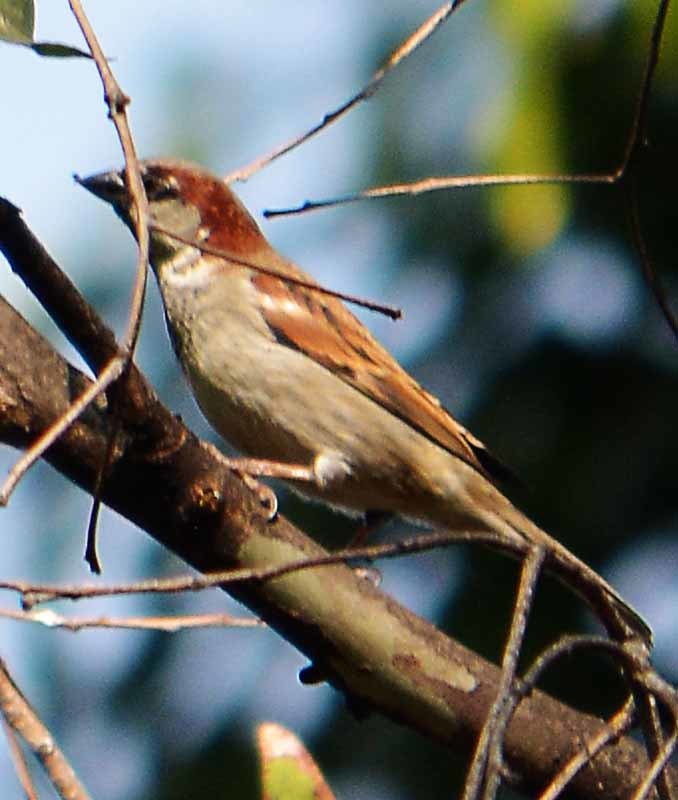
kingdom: Animalia
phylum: Chordata
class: Aves
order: Passeriformes
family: Passeridae
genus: Passer
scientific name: Passer domesticus
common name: House sparrow
